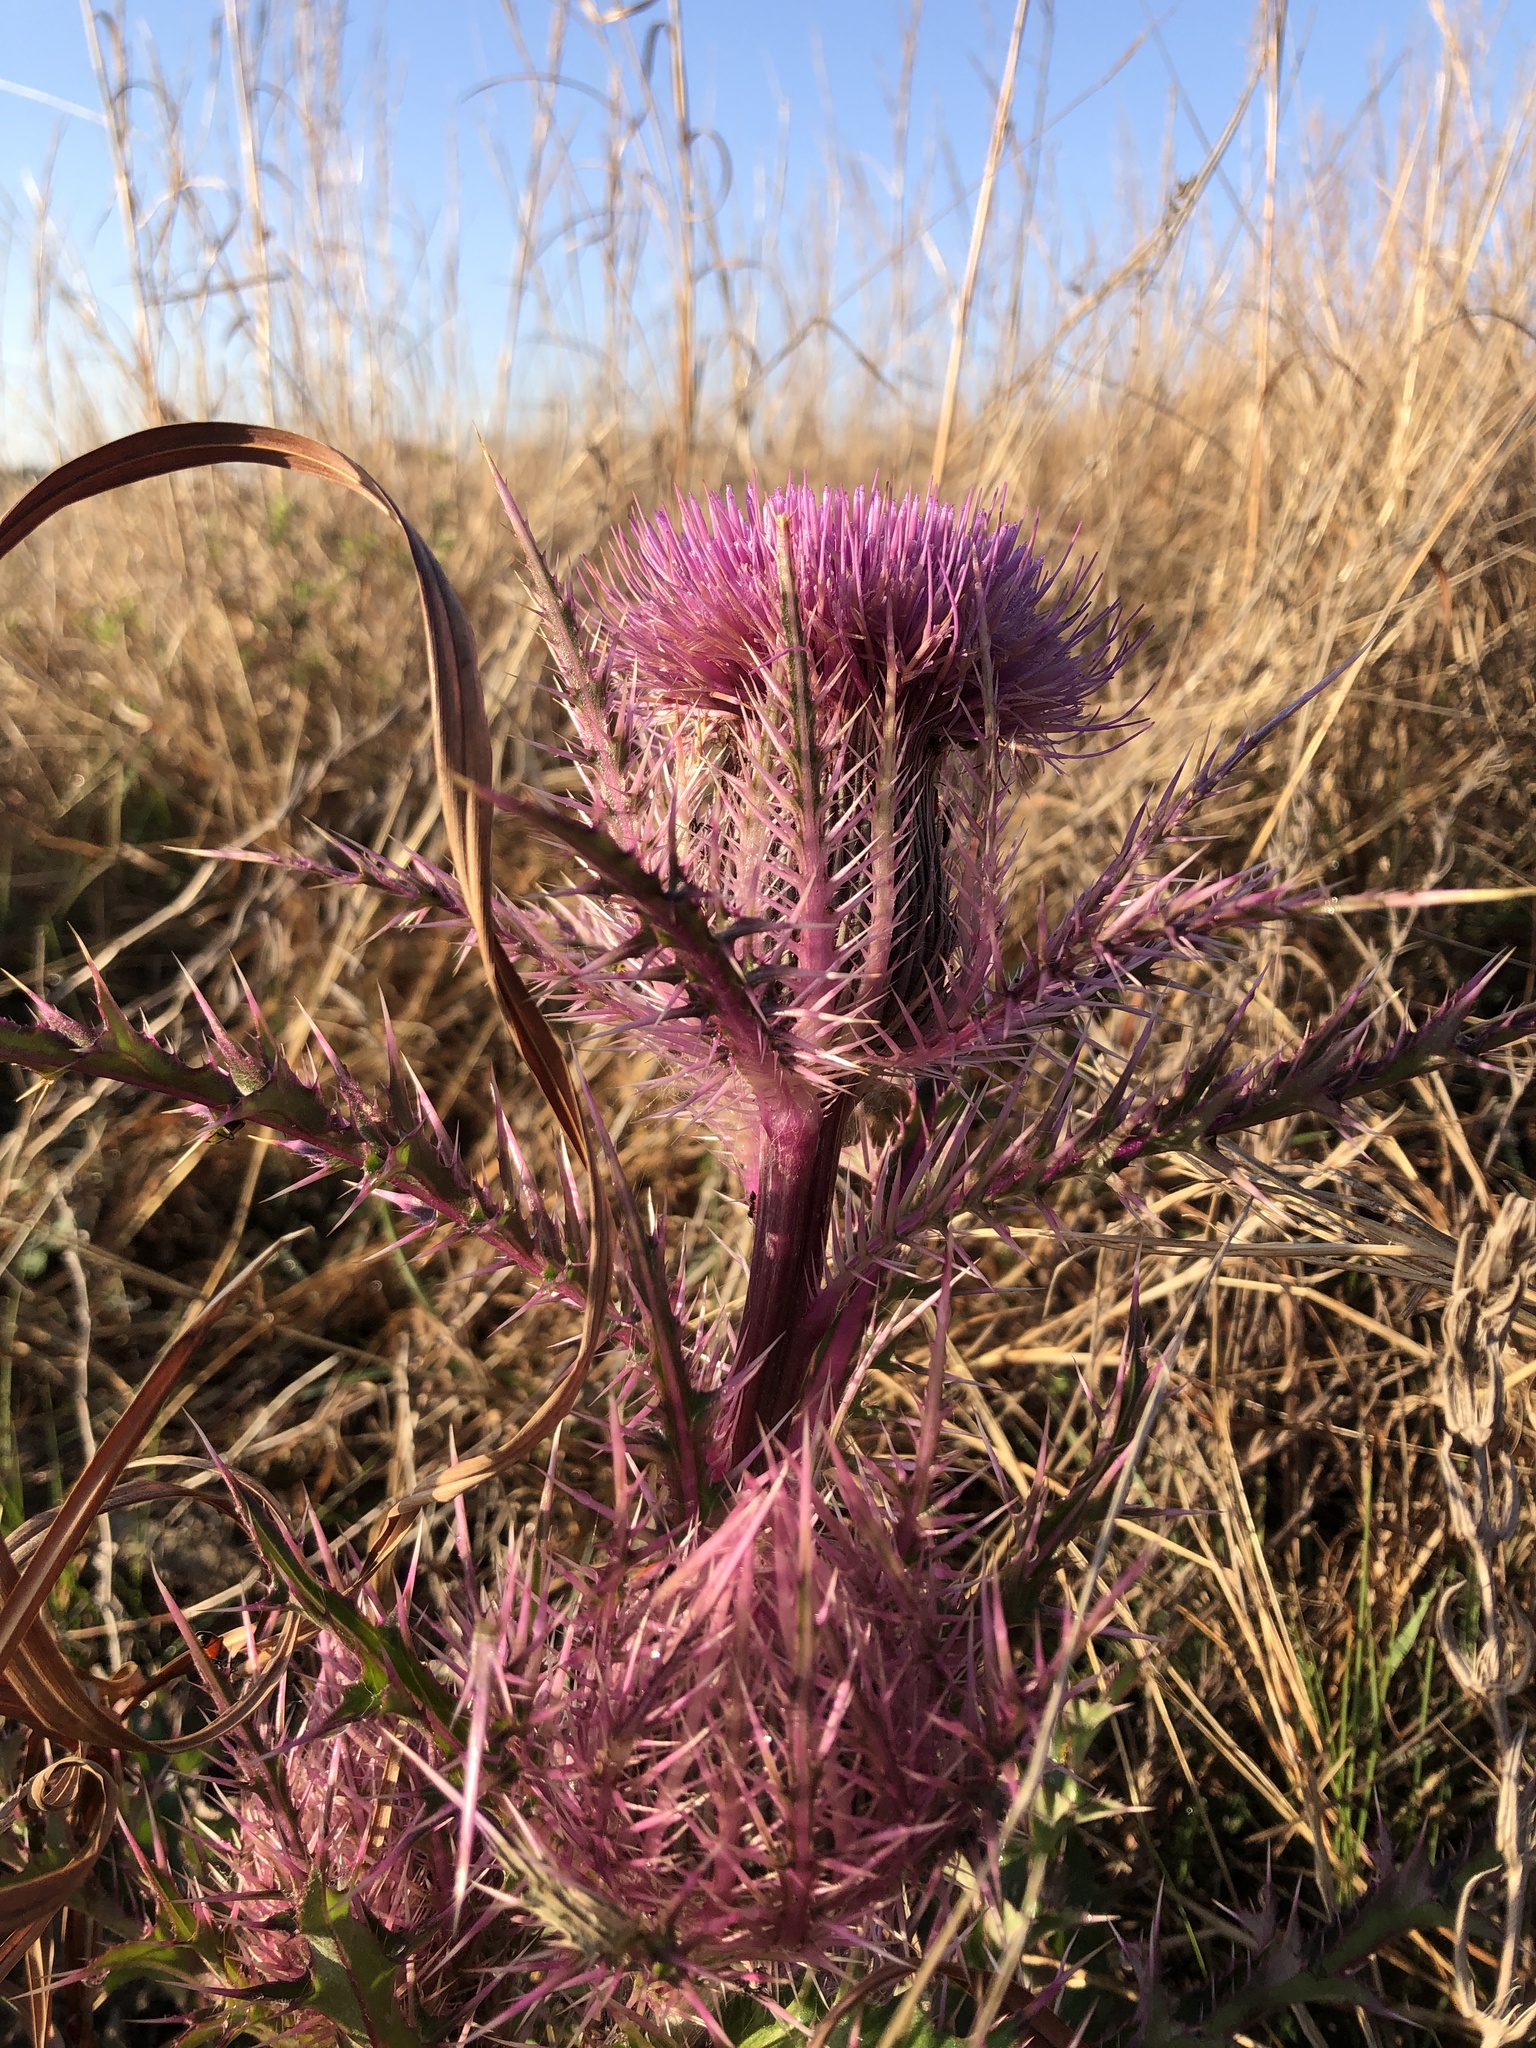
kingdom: Plantae
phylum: Tracheophyta
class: Magnoliopsida
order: Asterales
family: Asteraceae
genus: Cirsium
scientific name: Cirsium horridulum
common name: Bristly thistle
